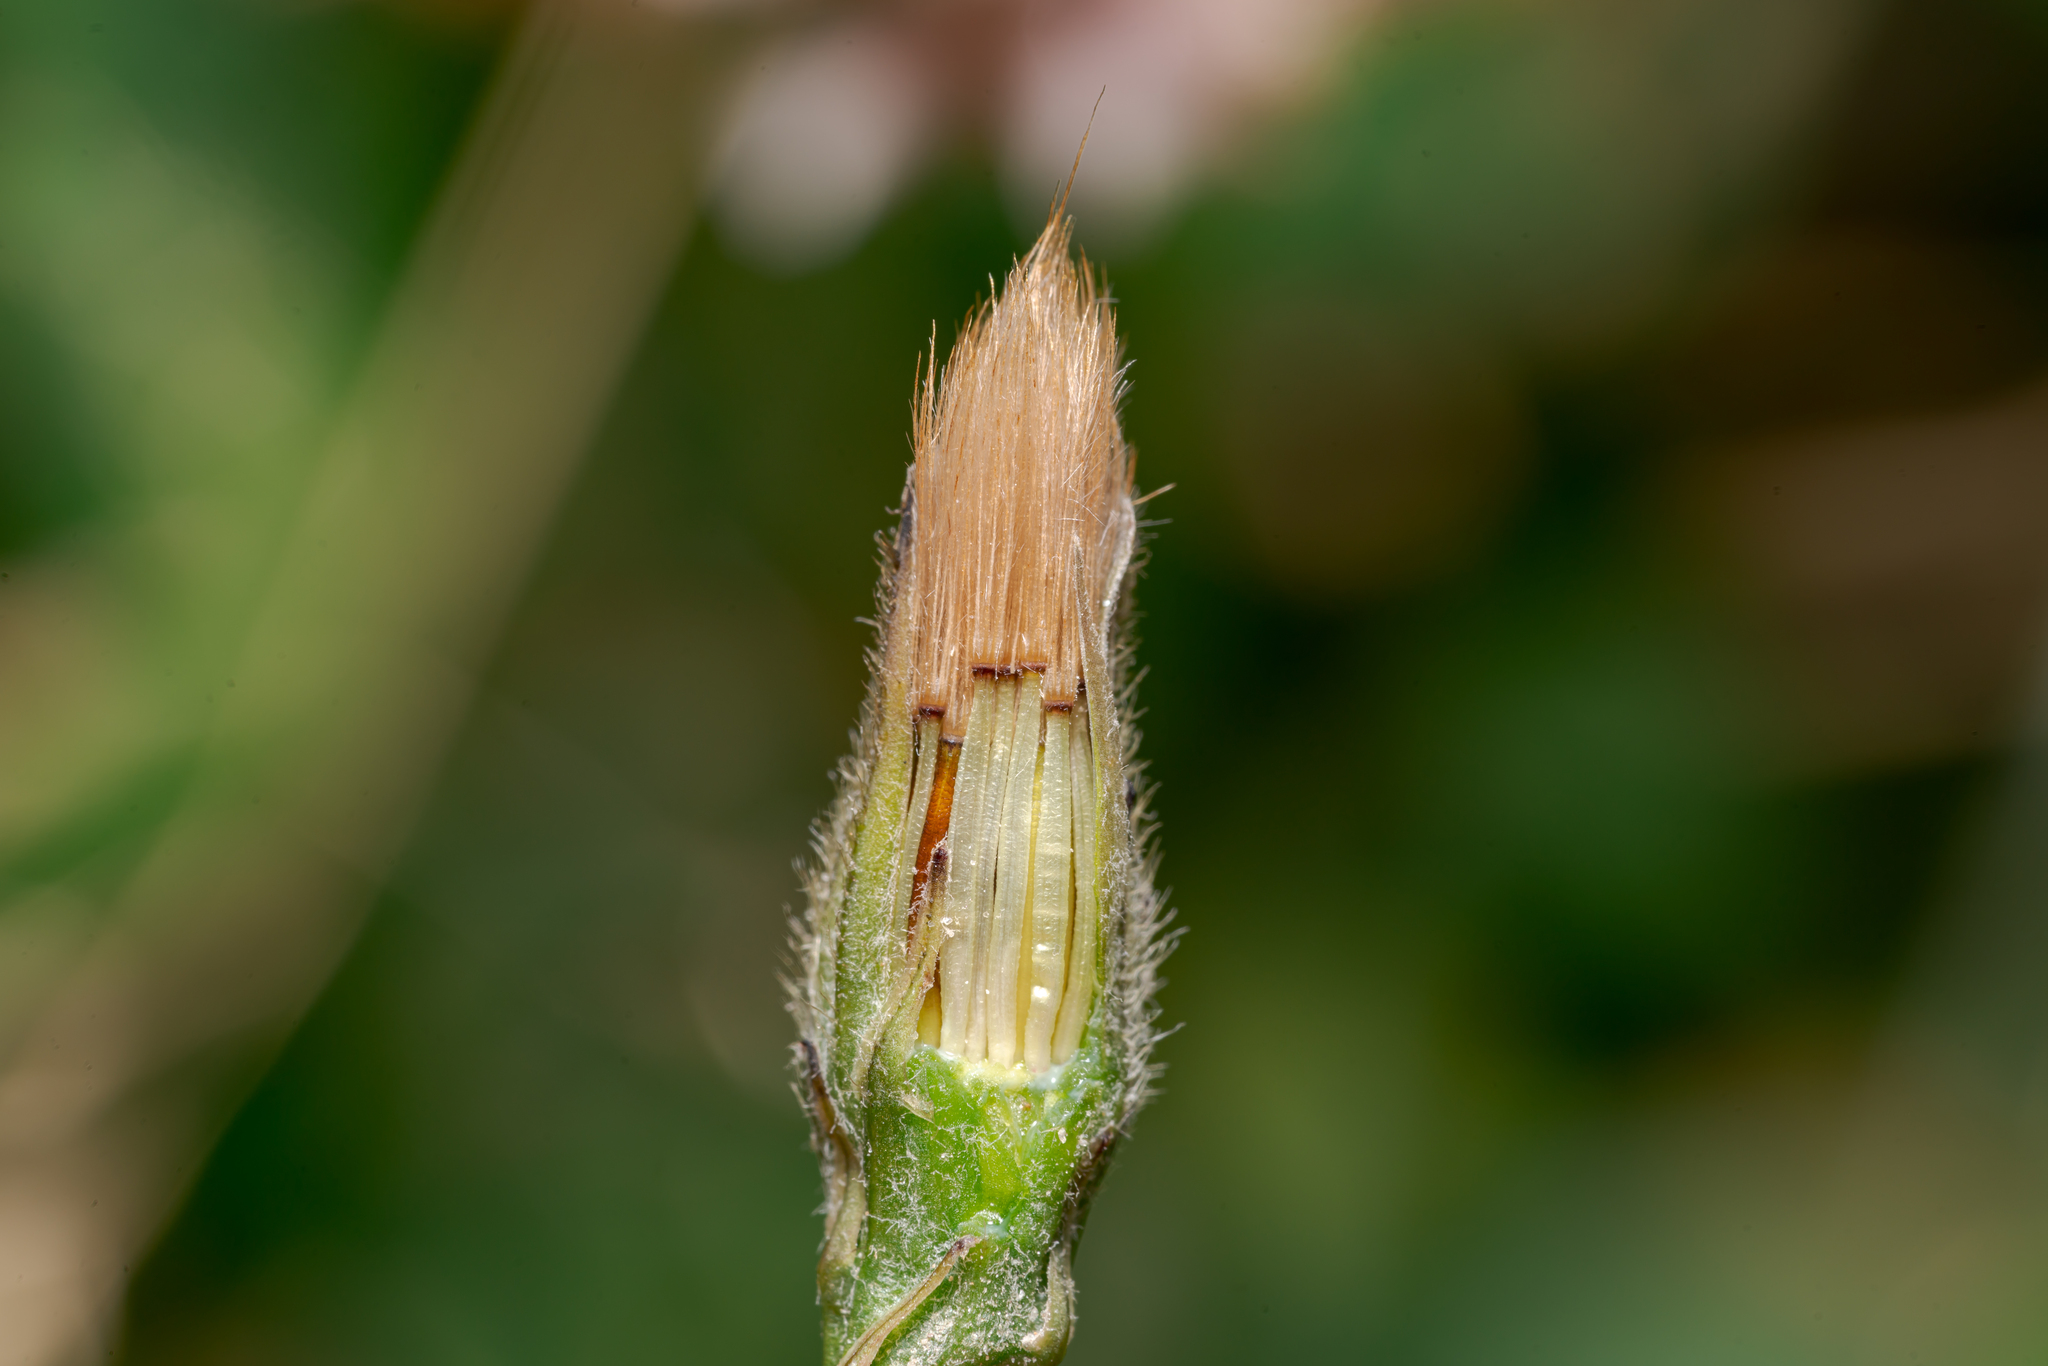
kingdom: Plantae
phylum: Tracheophyta
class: Magnoliopsida
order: Asterales
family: Asteraceae
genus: Scorzoneroides
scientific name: Scorzoneroides autumnalis
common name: Autumn hawkbit
